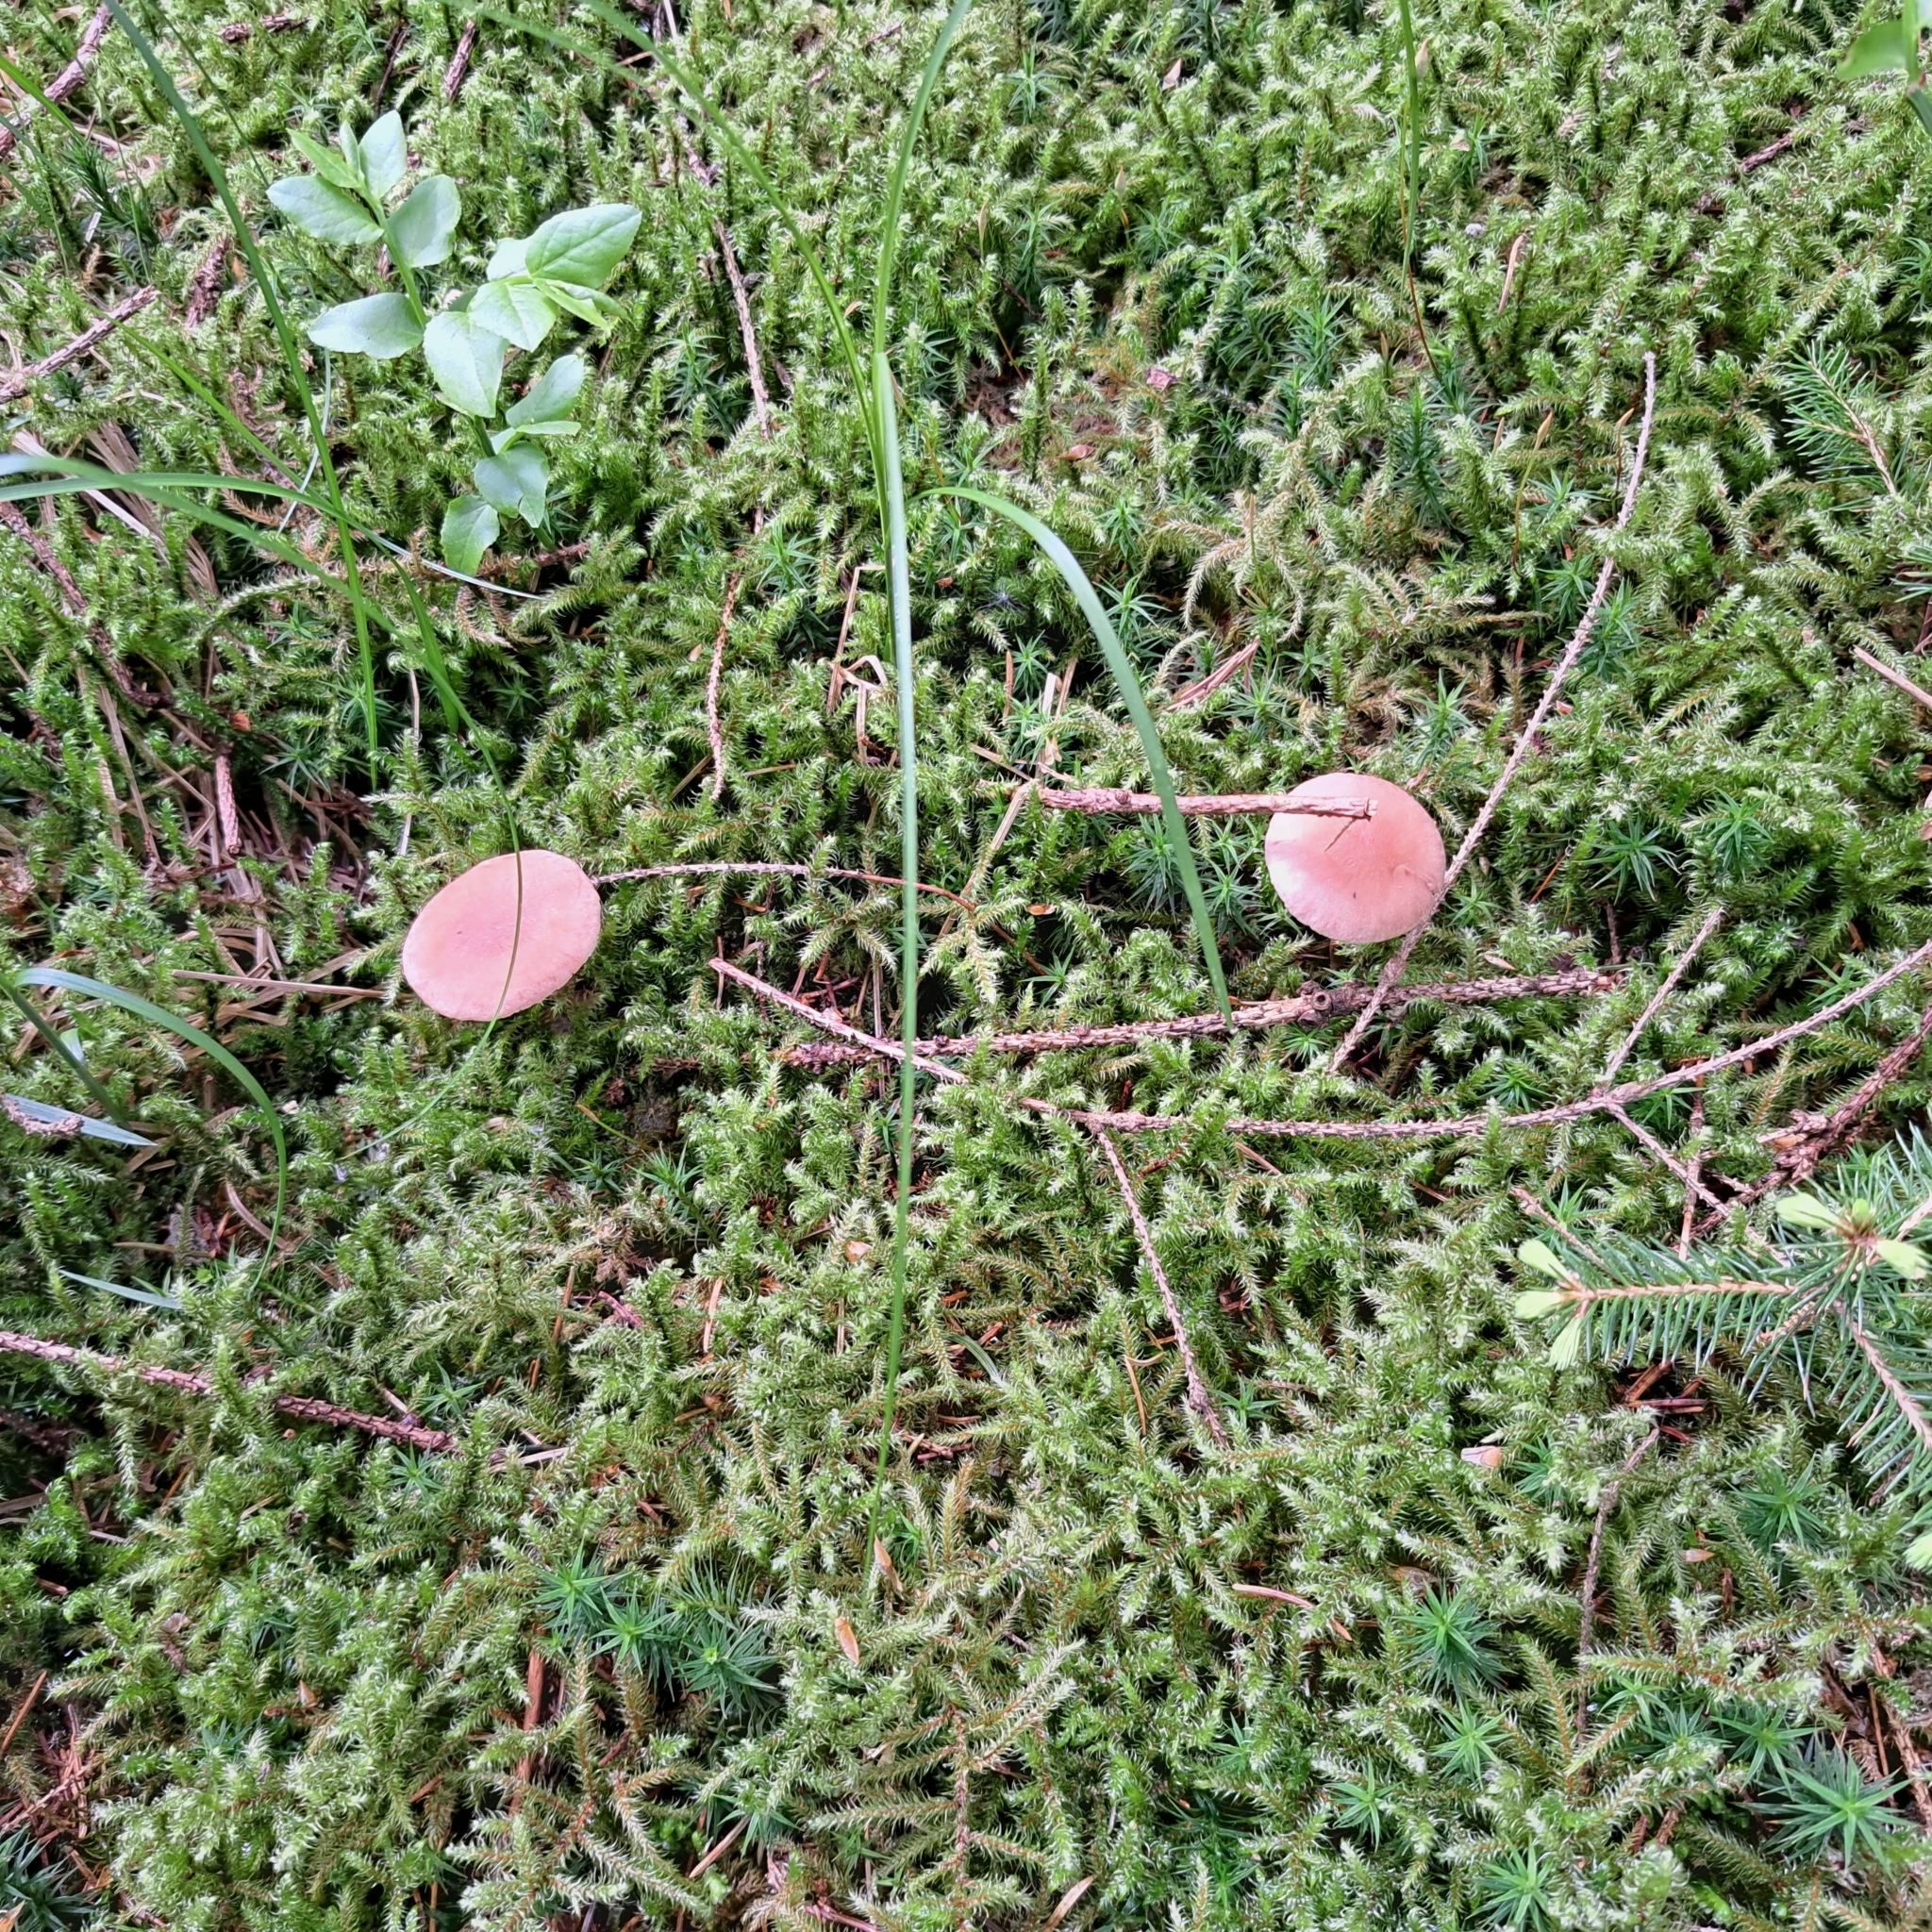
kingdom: Fungi
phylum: Basidiomycota
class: Agaricomycetes
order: Agaricales
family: Strophariaceae
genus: Hypholoma
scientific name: Hypholoma capnoides
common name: Conifer tuft
